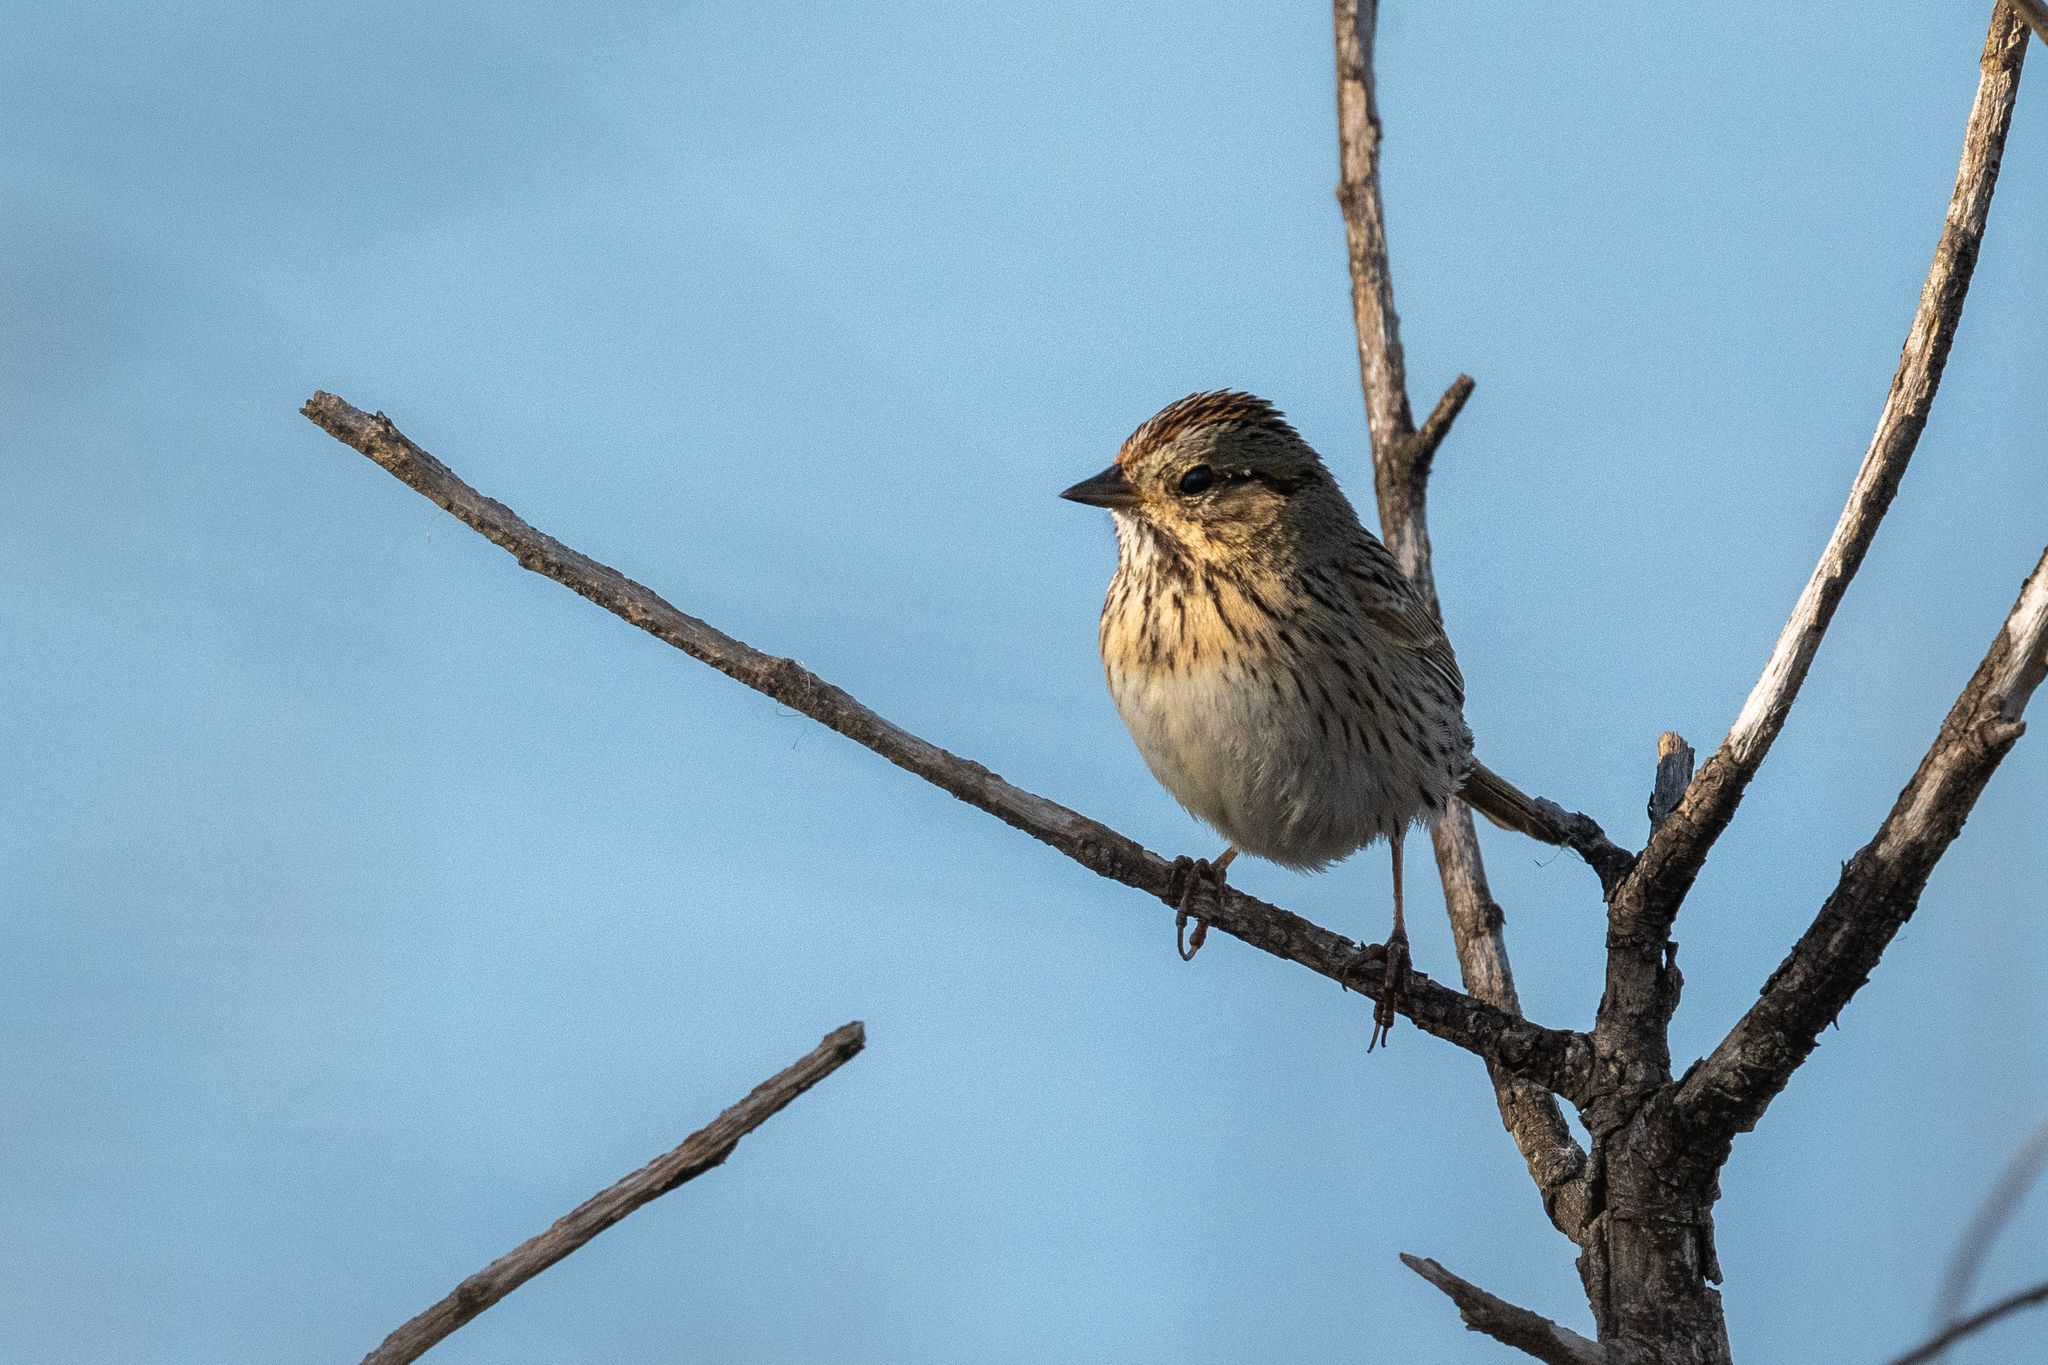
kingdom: Animalia
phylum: Chordata
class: Aves
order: Passeriformes
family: Passerellidae
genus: Melospiza
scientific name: Melospiza lincolnii
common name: Lincoln's sparrow
